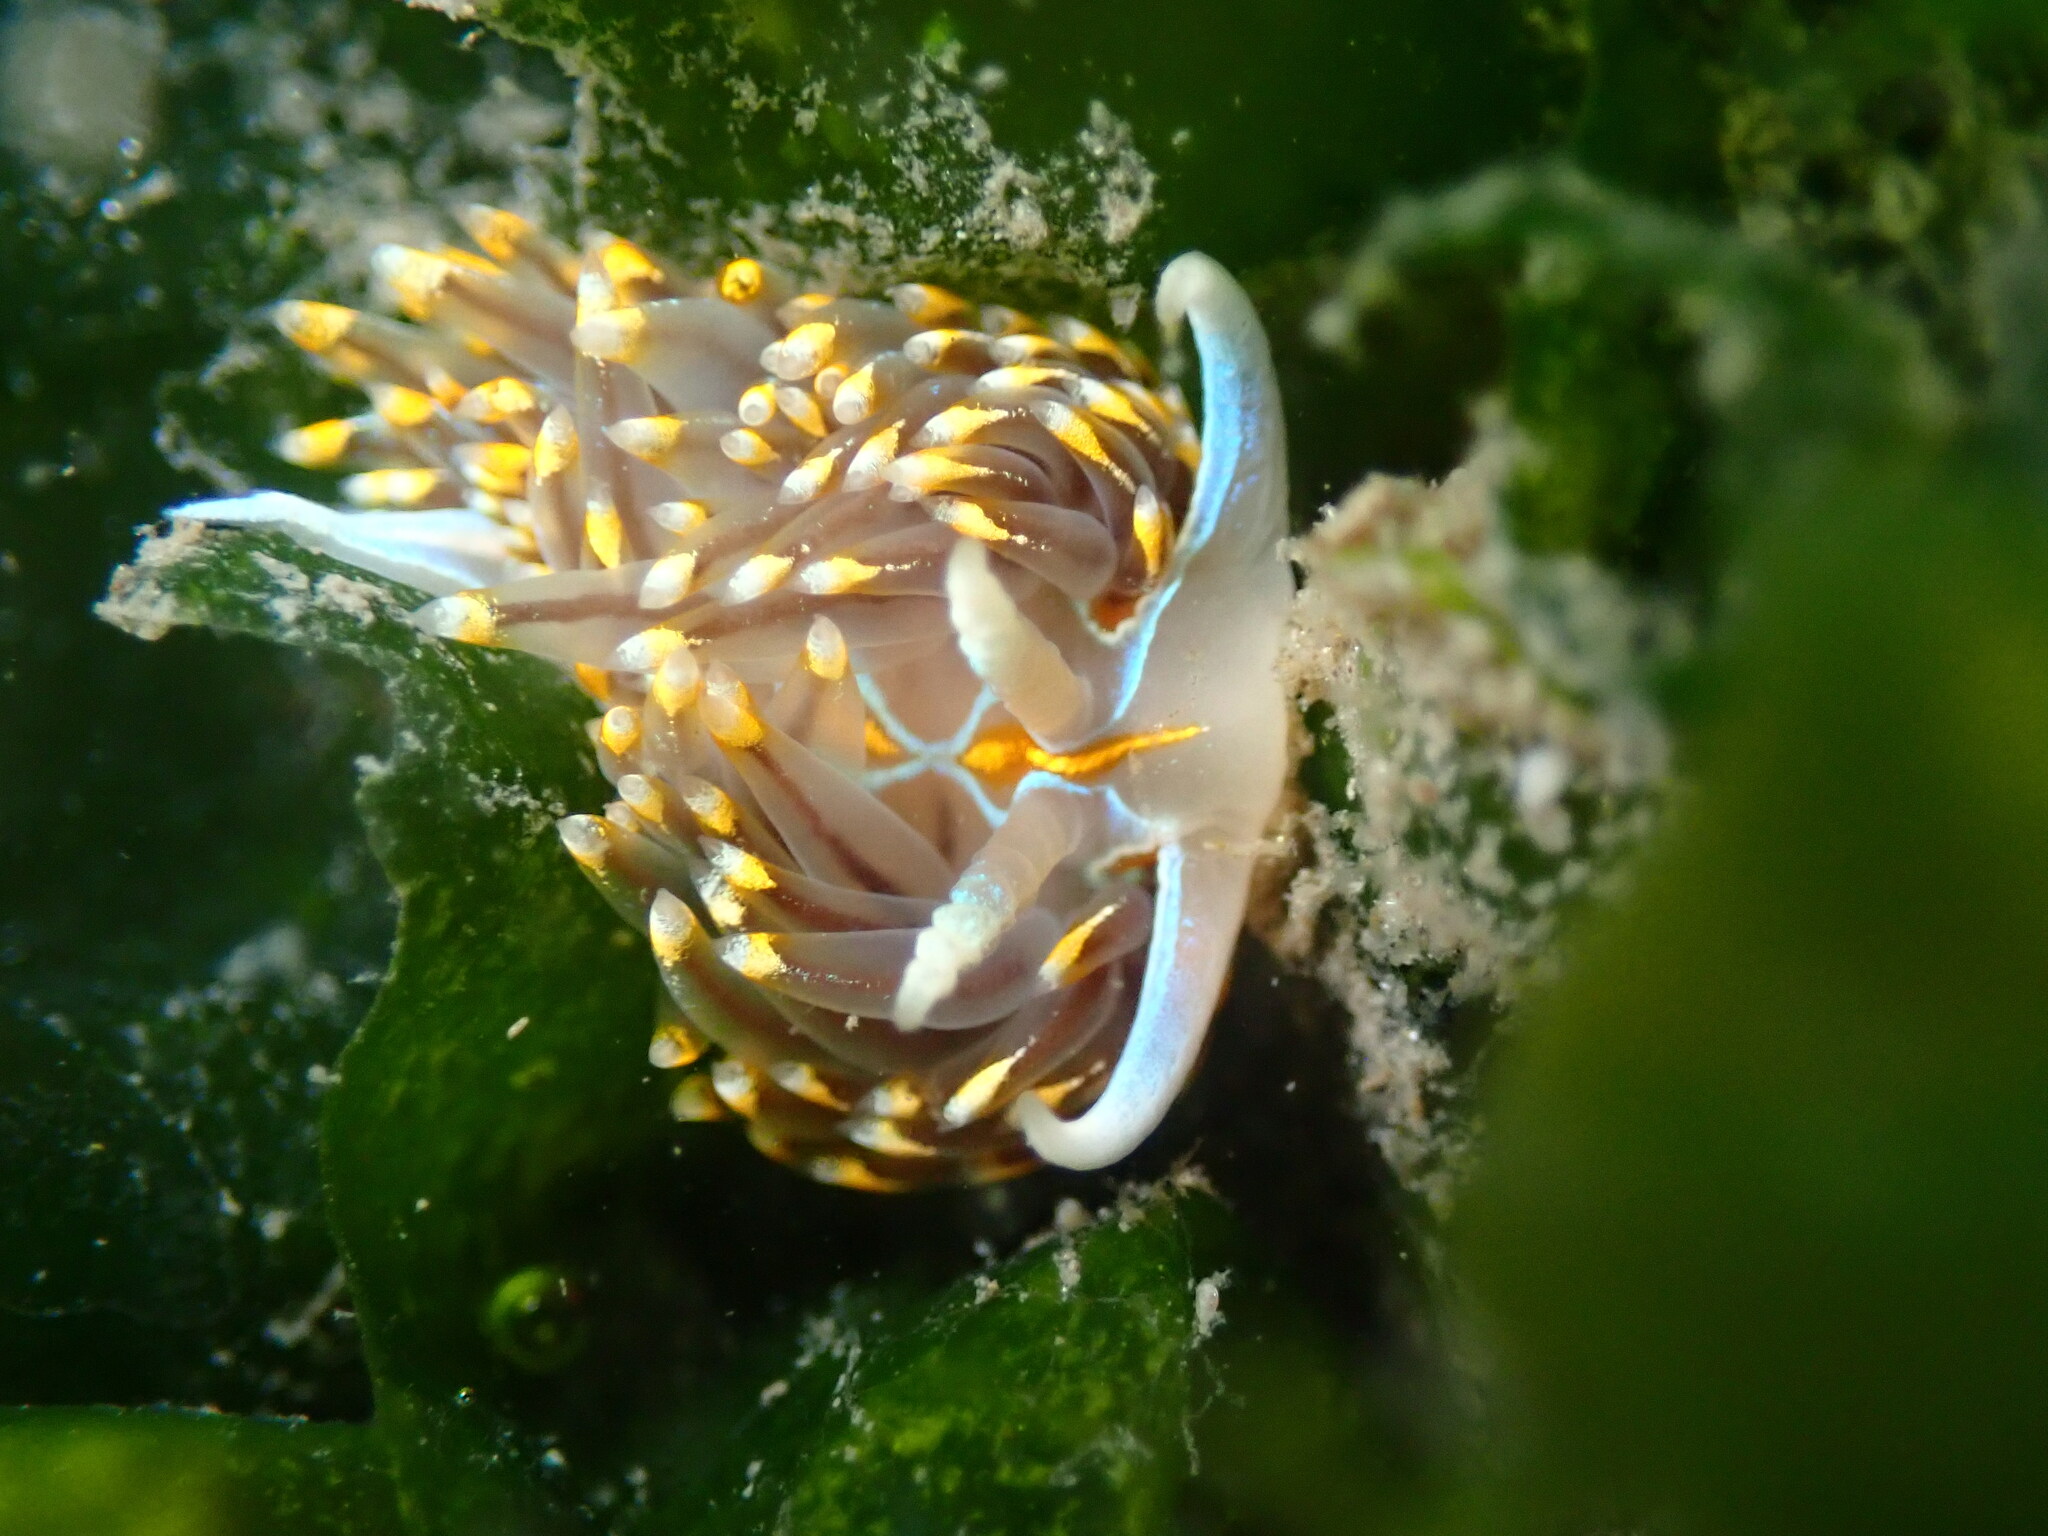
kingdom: Animalia
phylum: Mollusca
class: Gastropoda
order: Nudibranchia
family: Myrrhinidae
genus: Hermissenda
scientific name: Hermissenda opalescens
